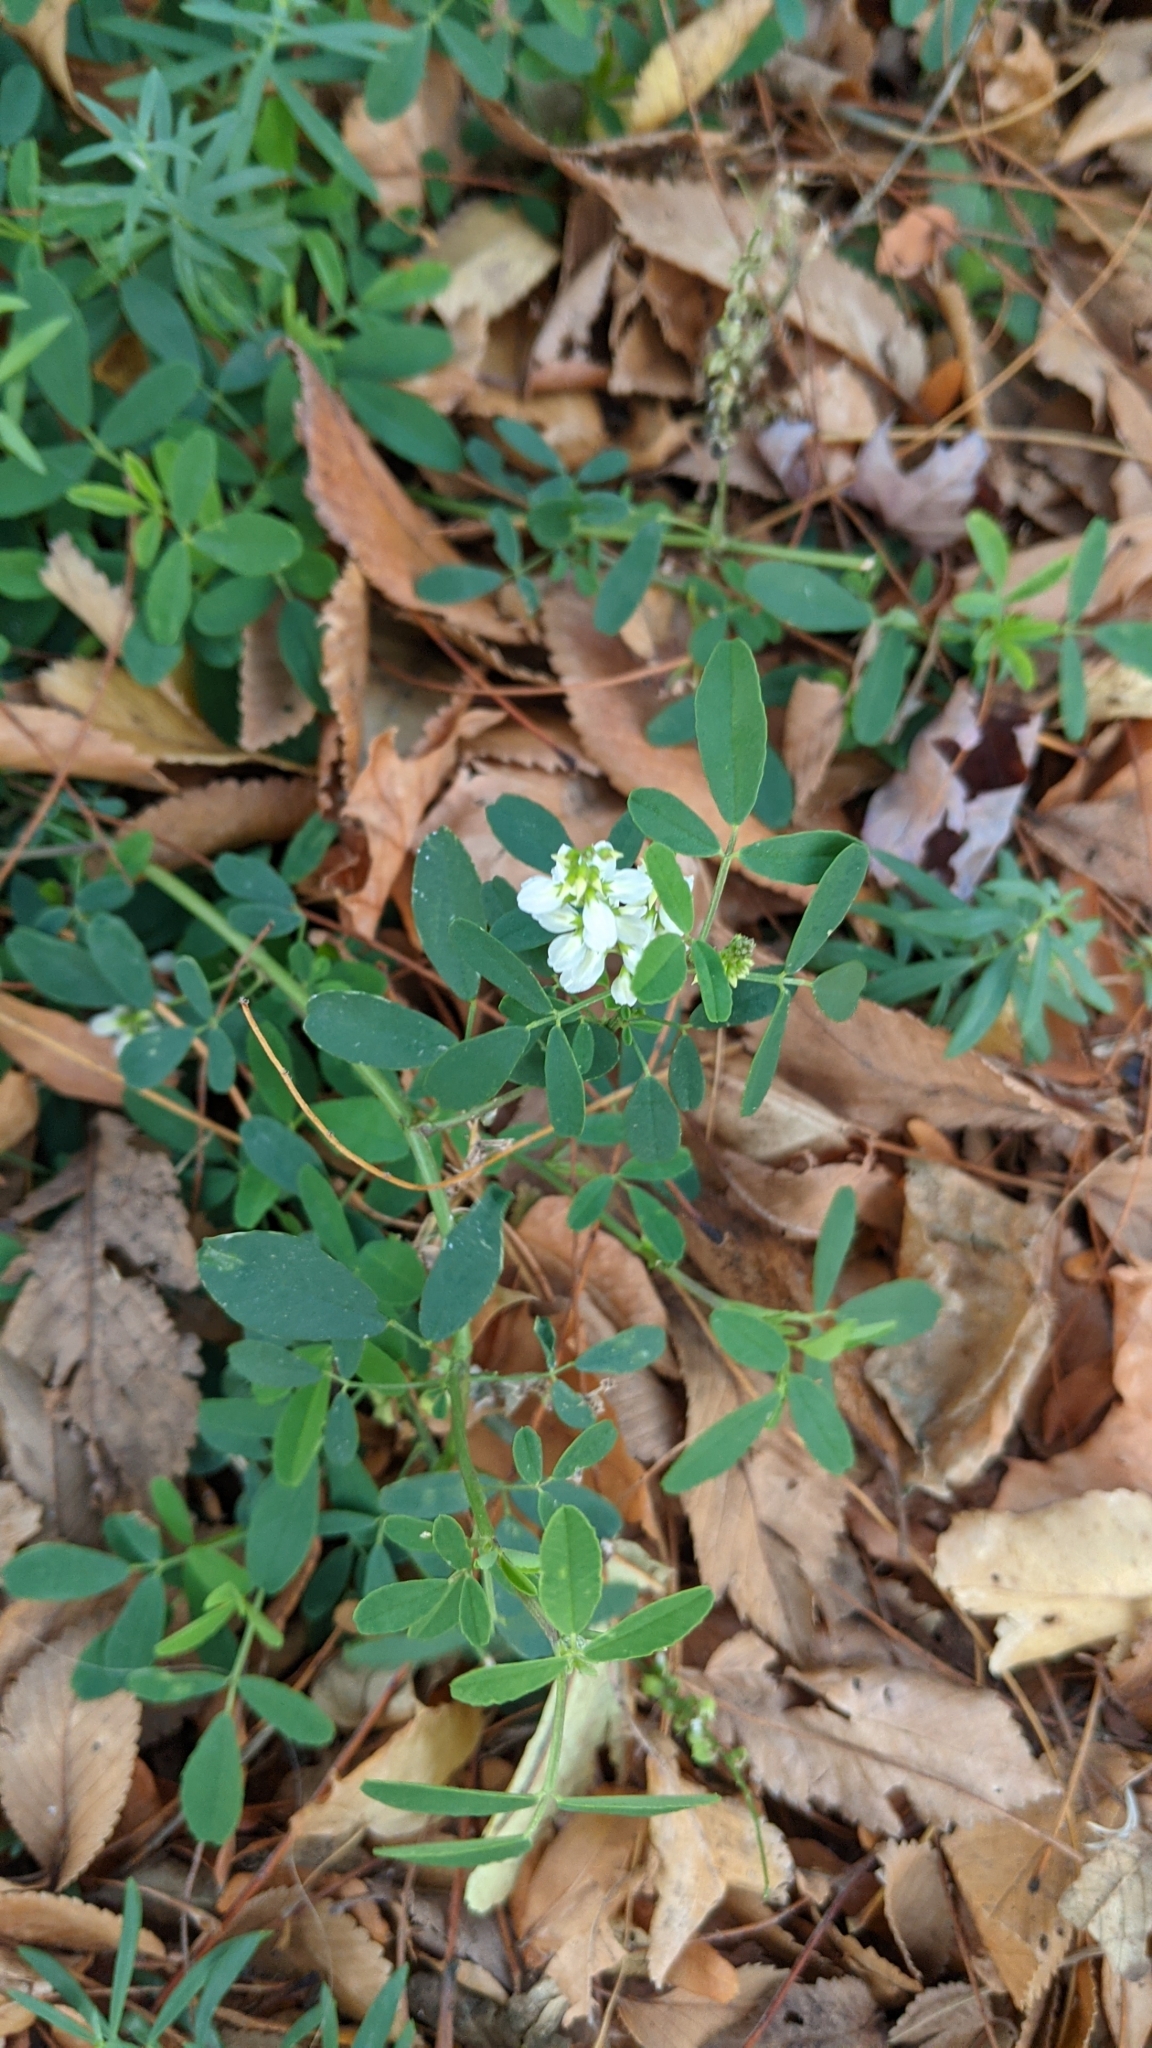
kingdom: Plantae
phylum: Tracheophyta
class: Magnoliopsida
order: Fabales
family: Fabaceae
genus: Melilotus
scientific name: Melilotus albus
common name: White melilot
